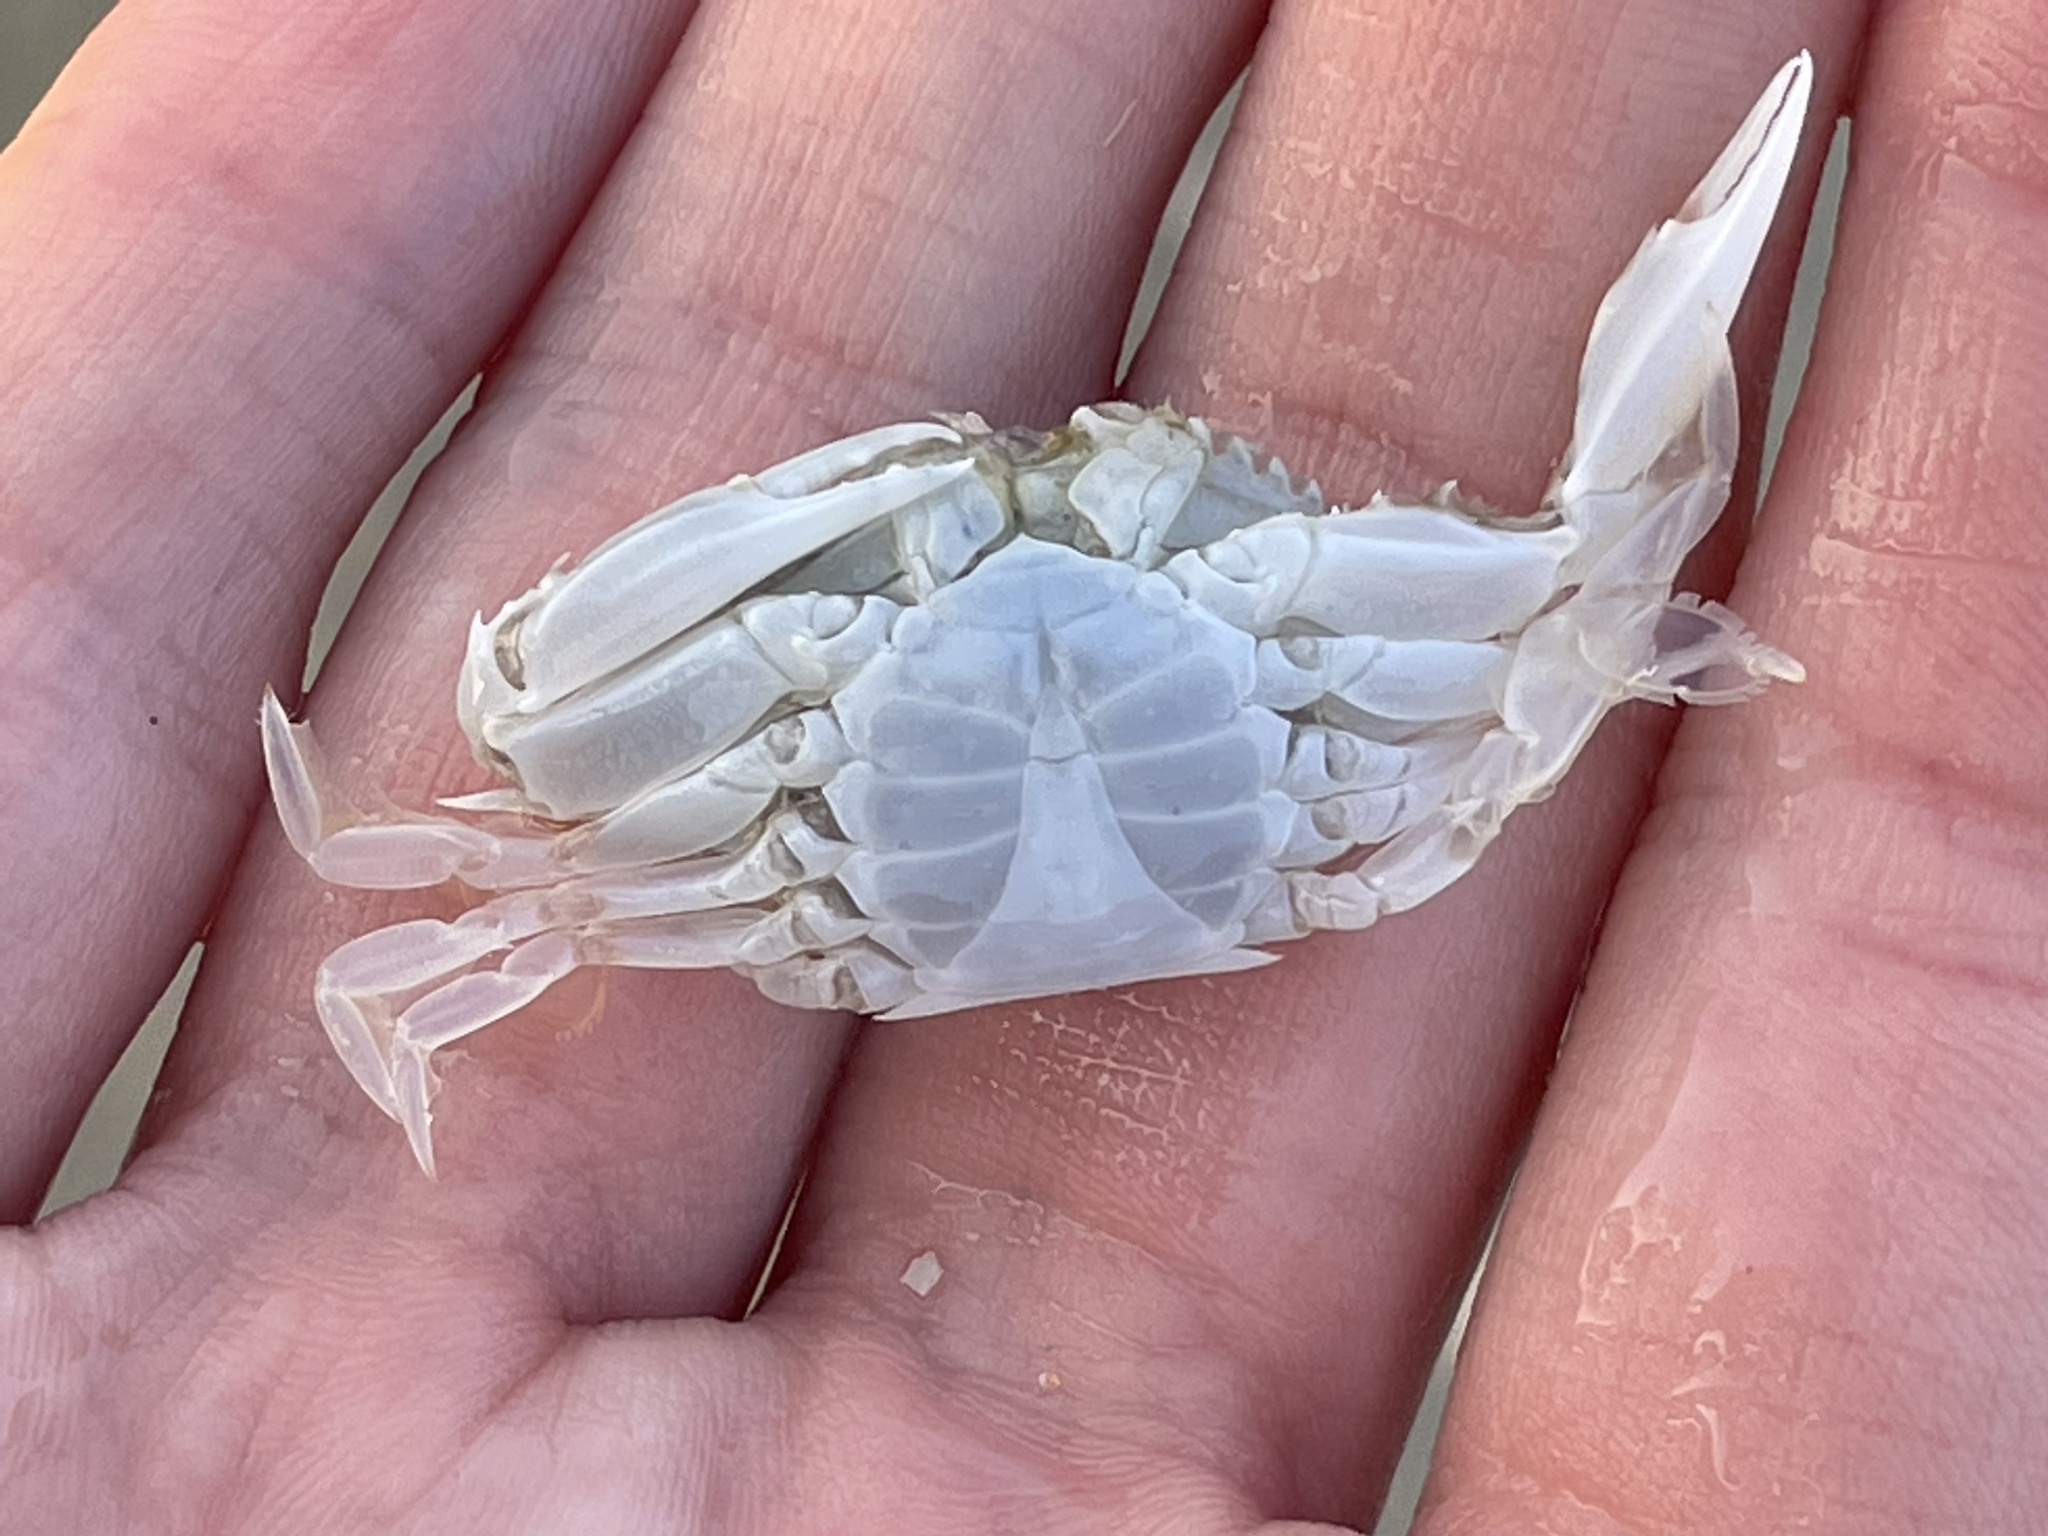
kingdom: Animalia
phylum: Arthropoda
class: Malacostraca
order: Decapoda
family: Portunidae
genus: Arenaeus
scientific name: Arenaeus cribrarius
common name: Speckled crab
